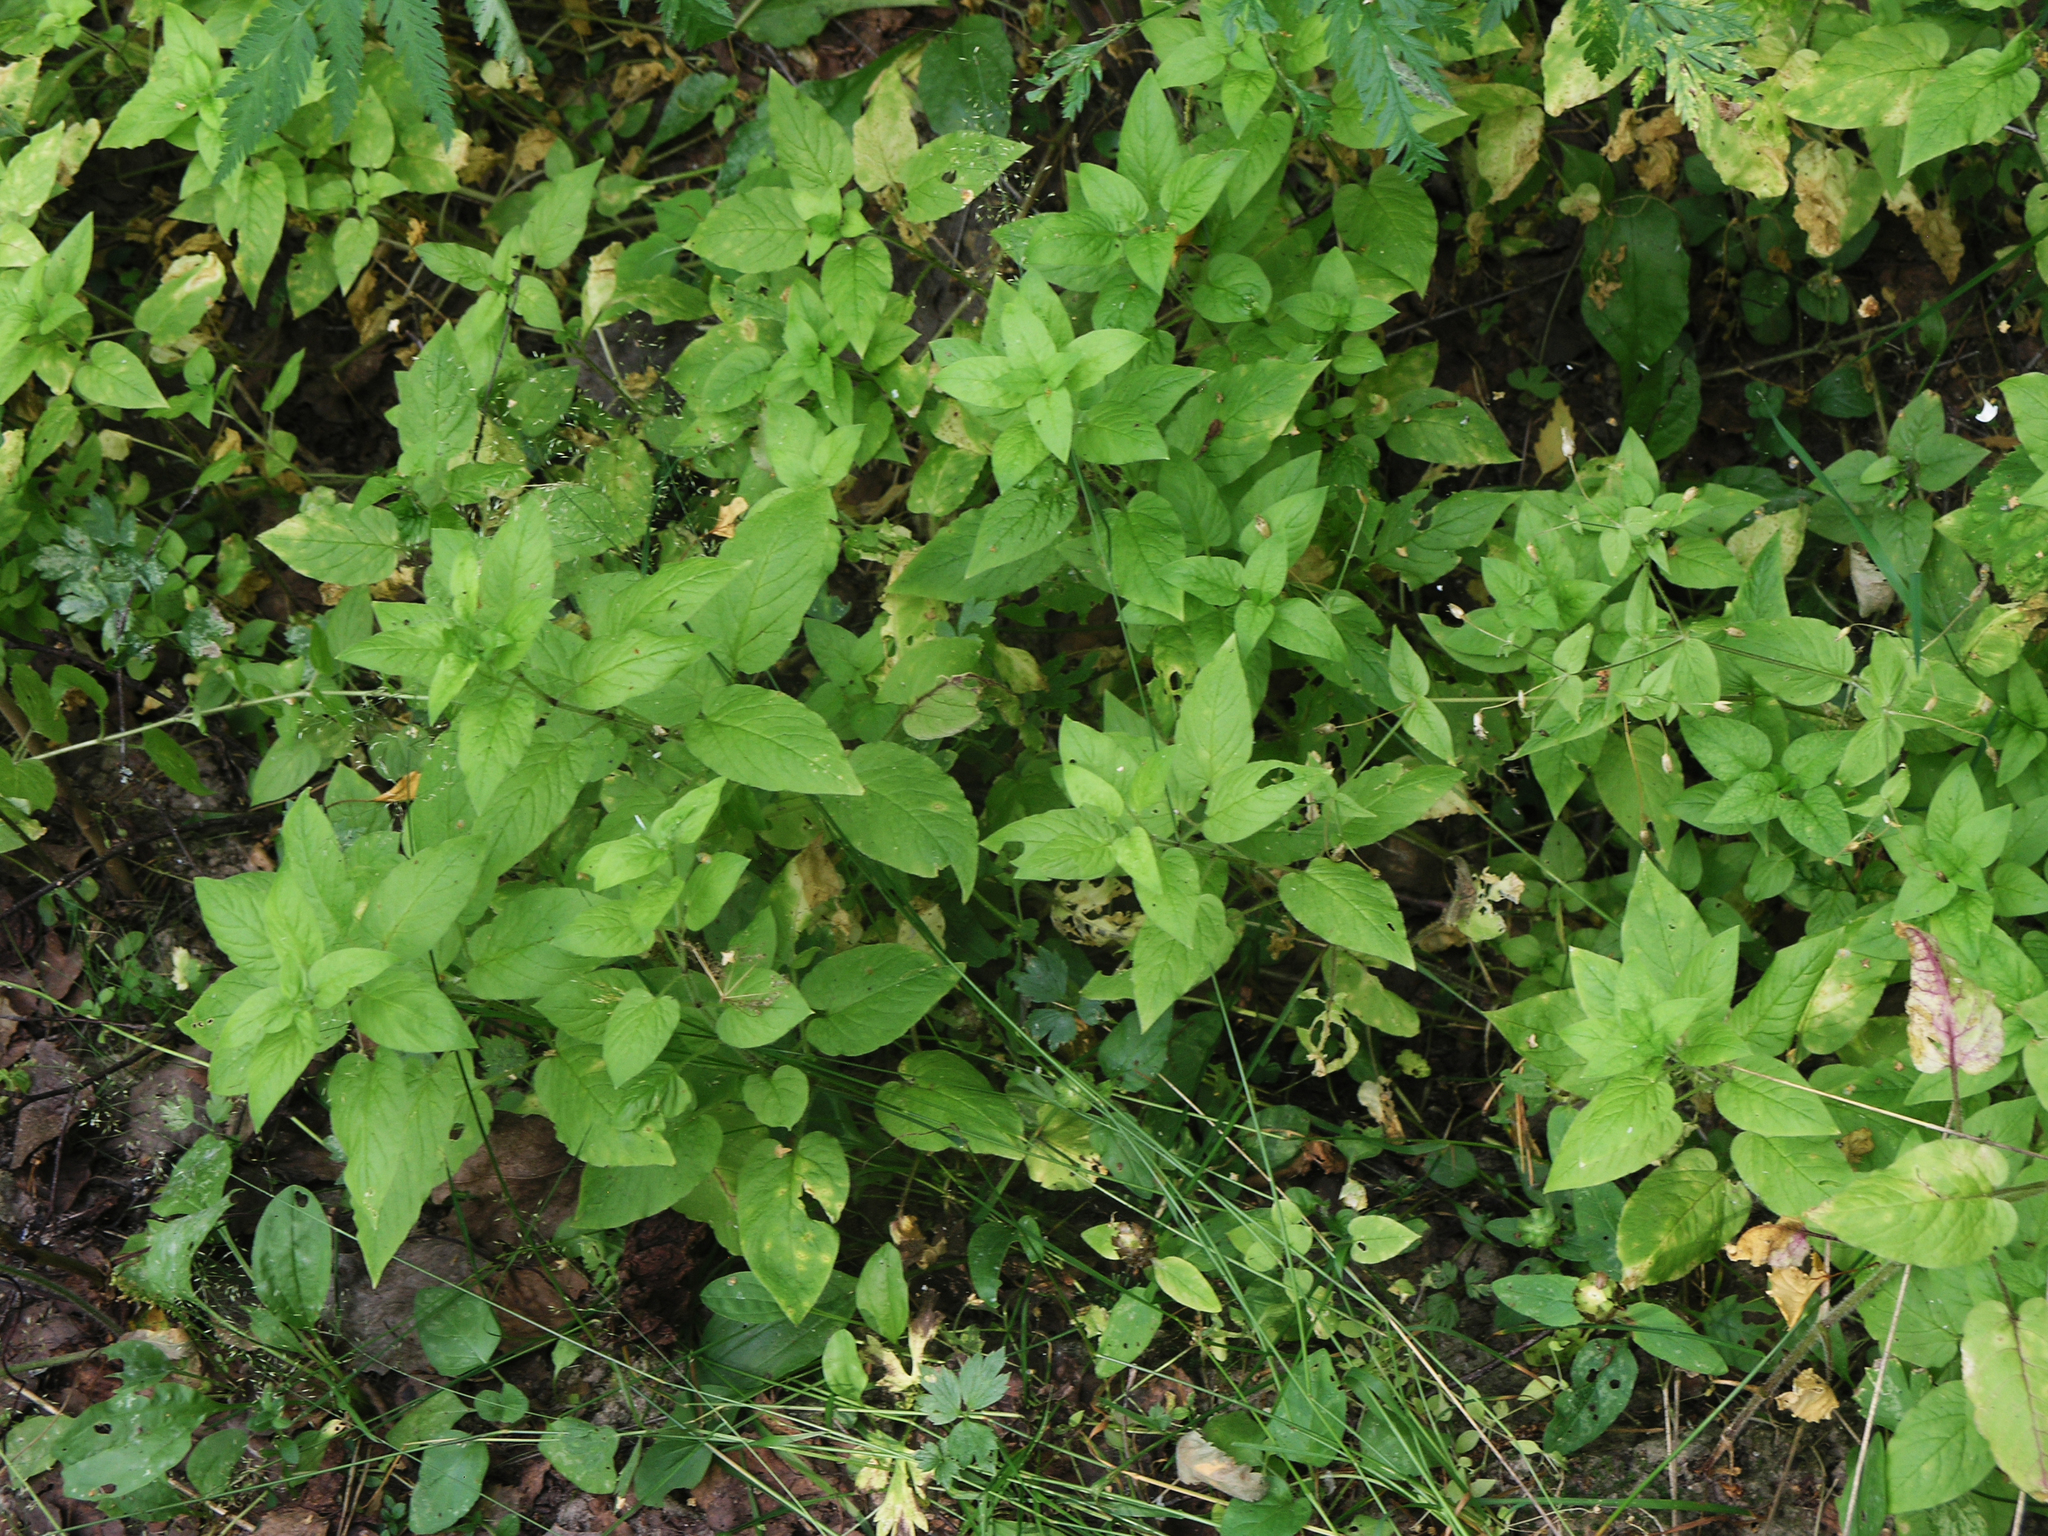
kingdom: Plantae
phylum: Tracheophyta
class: Magnoliopsida
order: Caryophyllales
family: Caryophyllaceae
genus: Stellaria
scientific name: Stellaria nemorum
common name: Wood stitchwort
